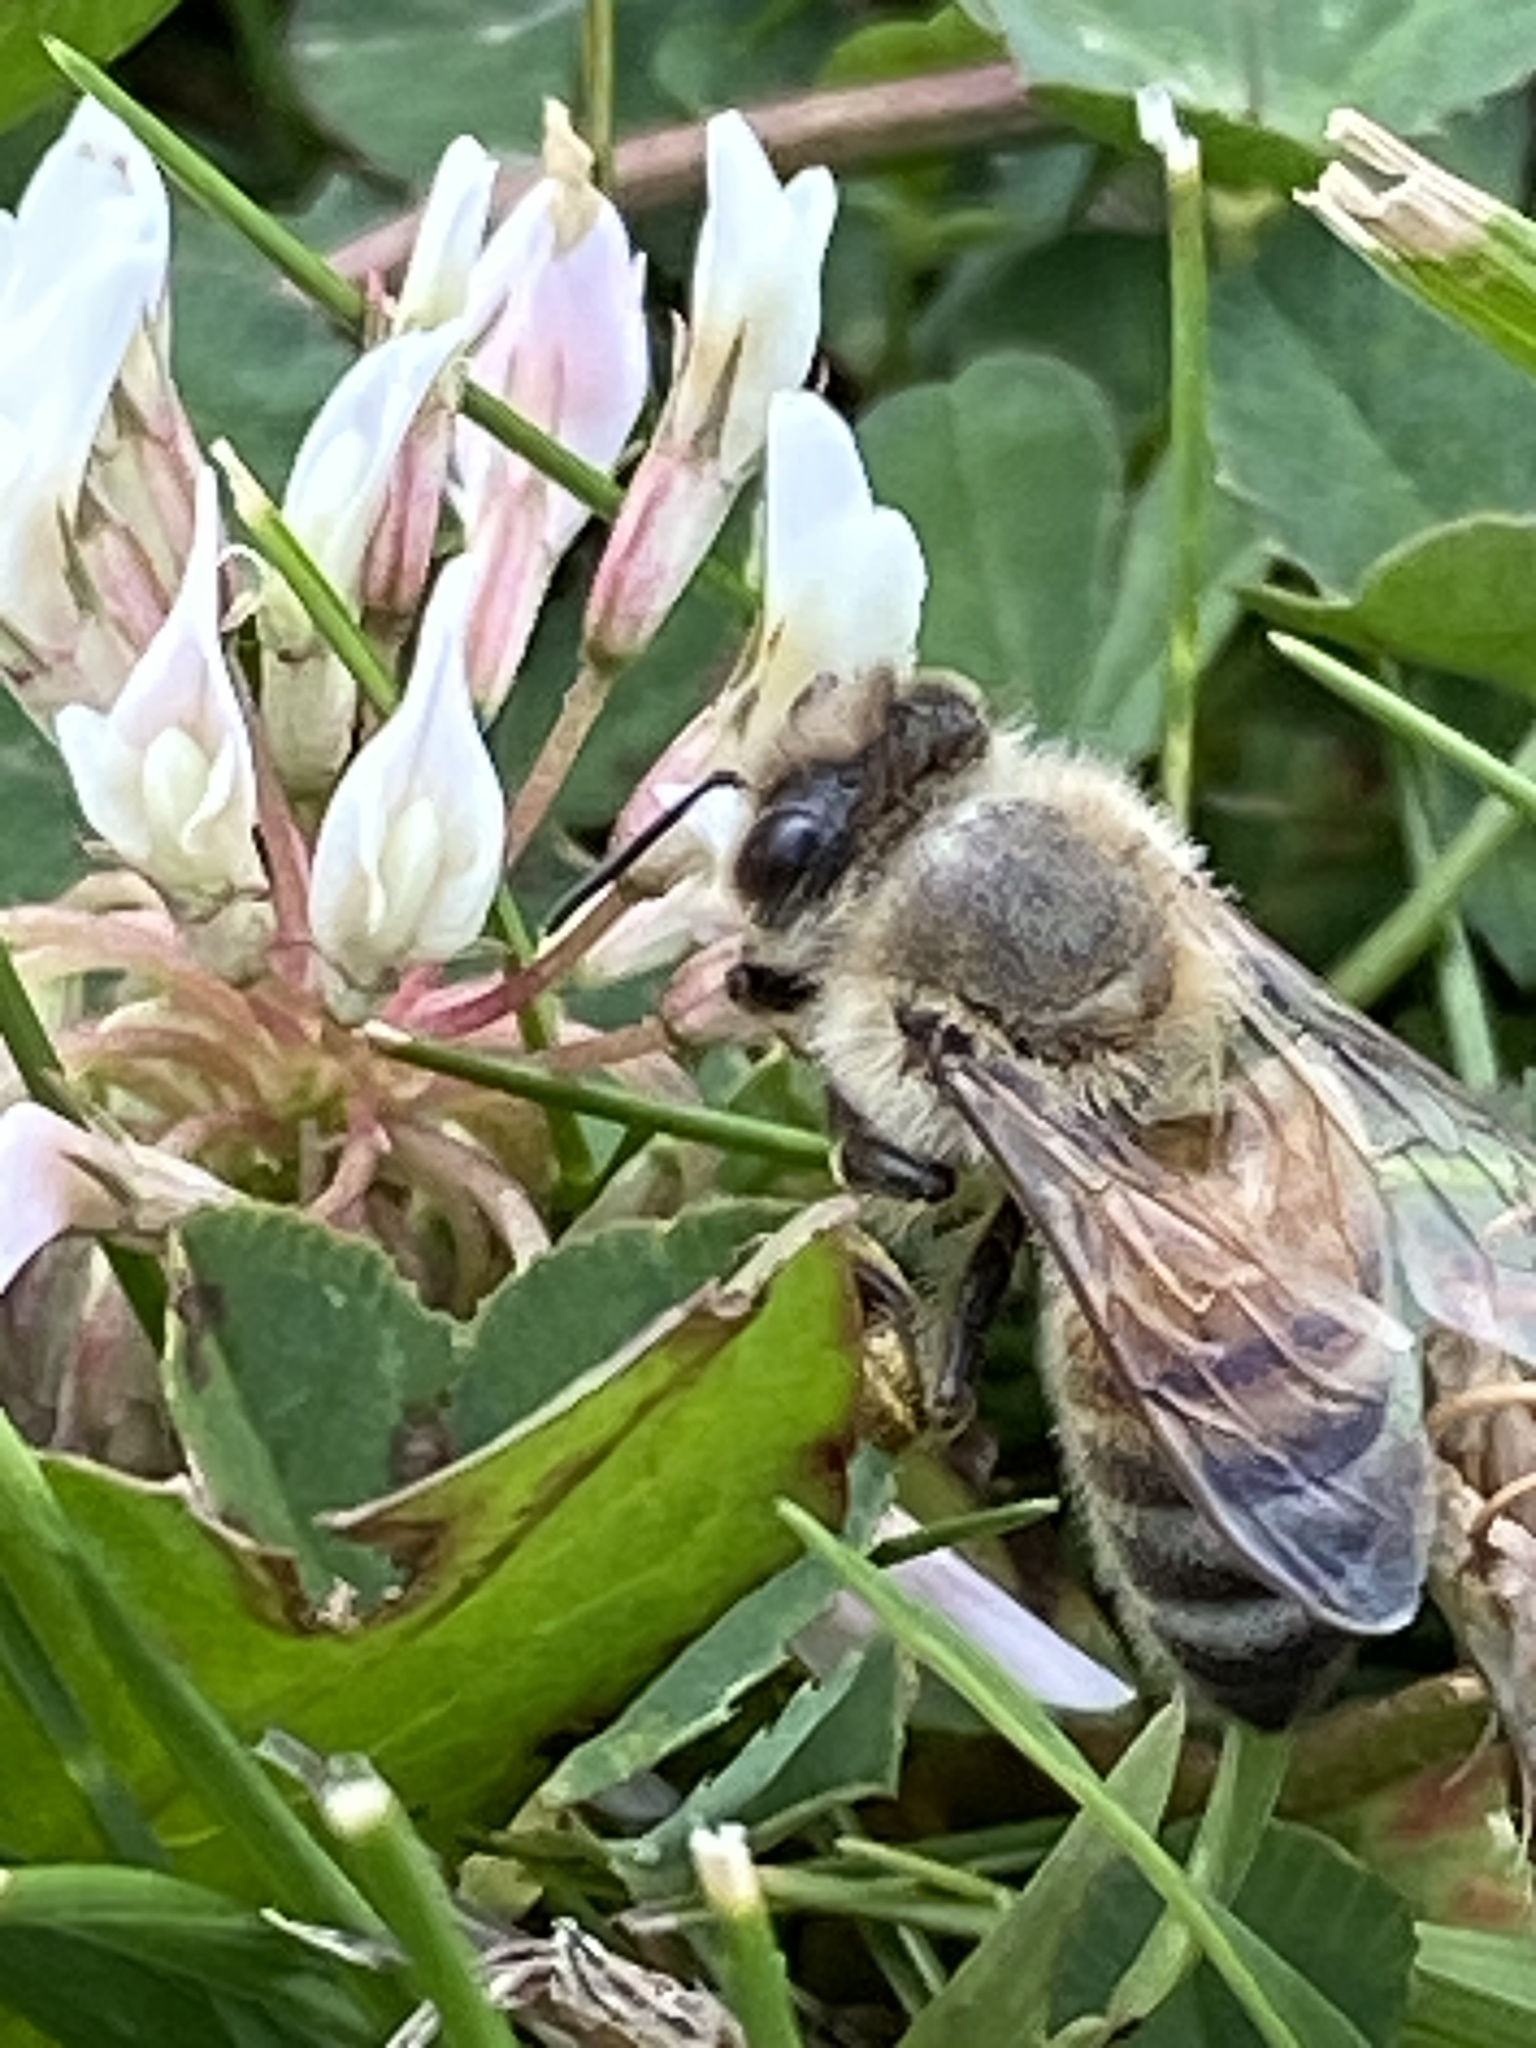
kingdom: Animalia
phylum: Arthropoda
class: Insecta
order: Hymenoptera
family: Apidae
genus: Apis
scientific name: Apis mellifera
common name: Honey bee
